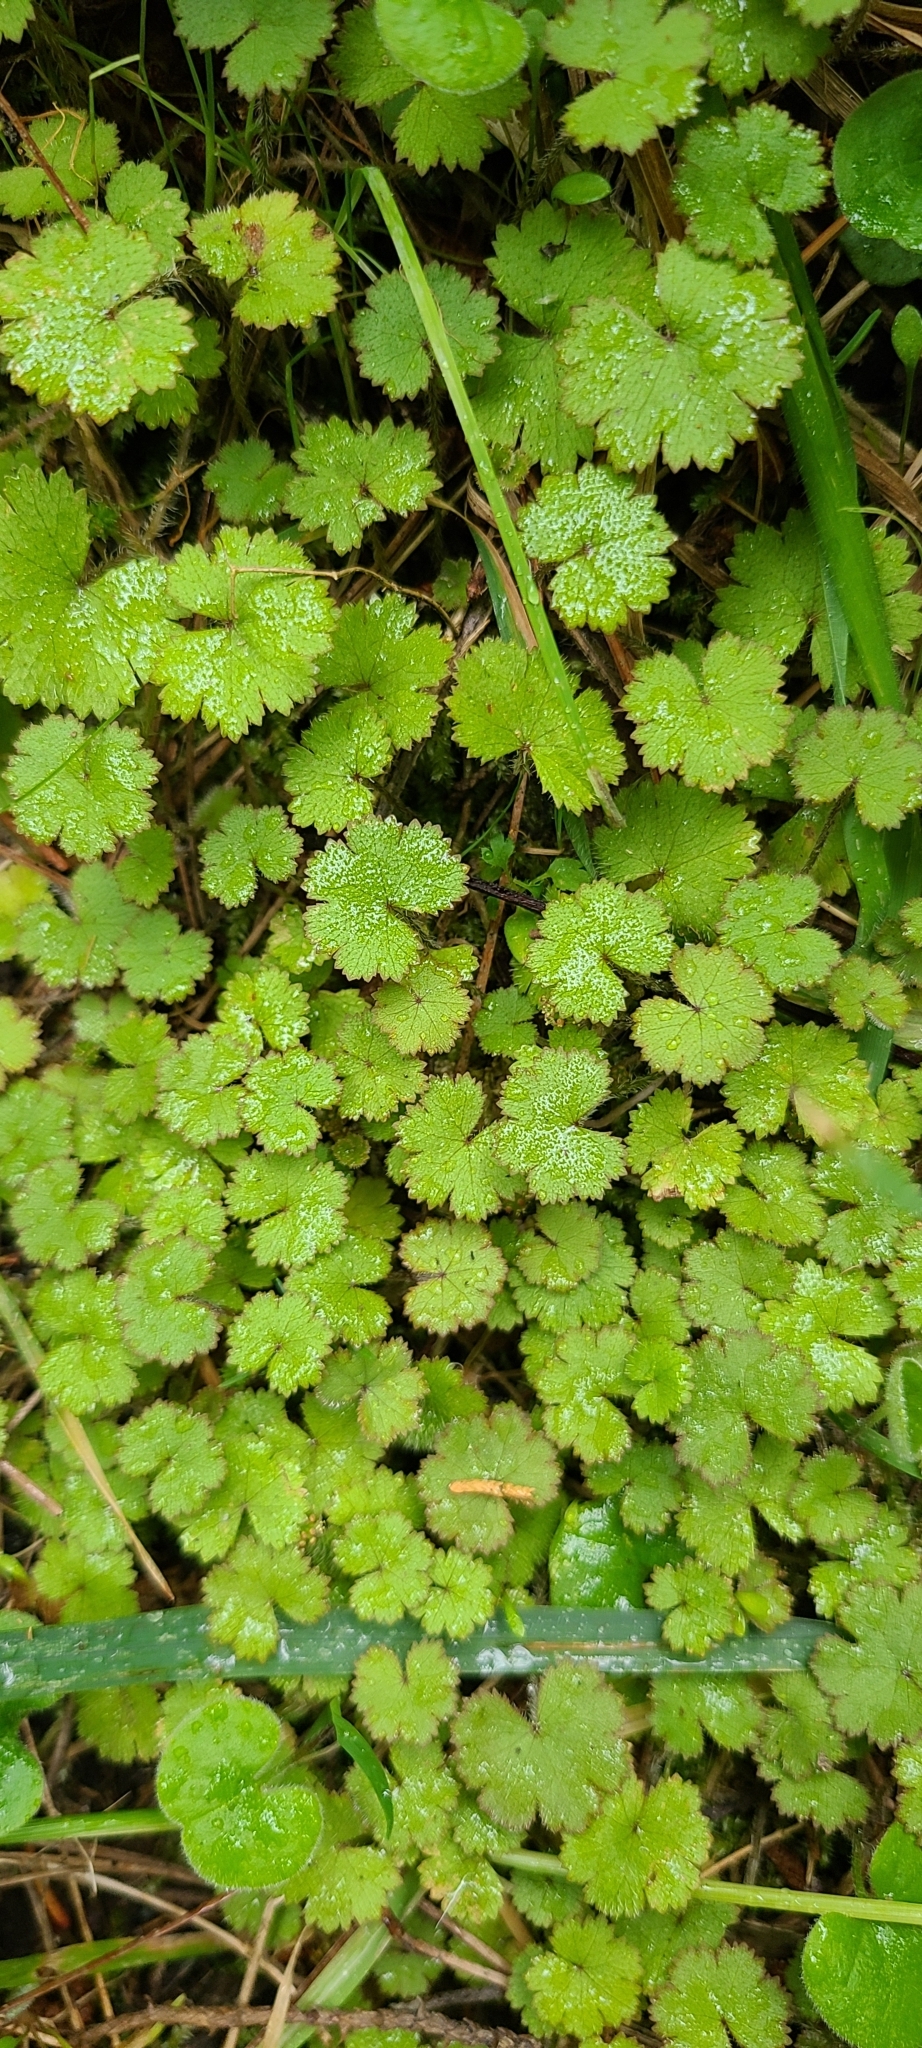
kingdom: Plantae
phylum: Tracheophyta
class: Magnoliopsida
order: Apiales
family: Araliaceae
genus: Hydrocotyle
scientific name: Hydrocotyle moschata
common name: Hairy pennywort
